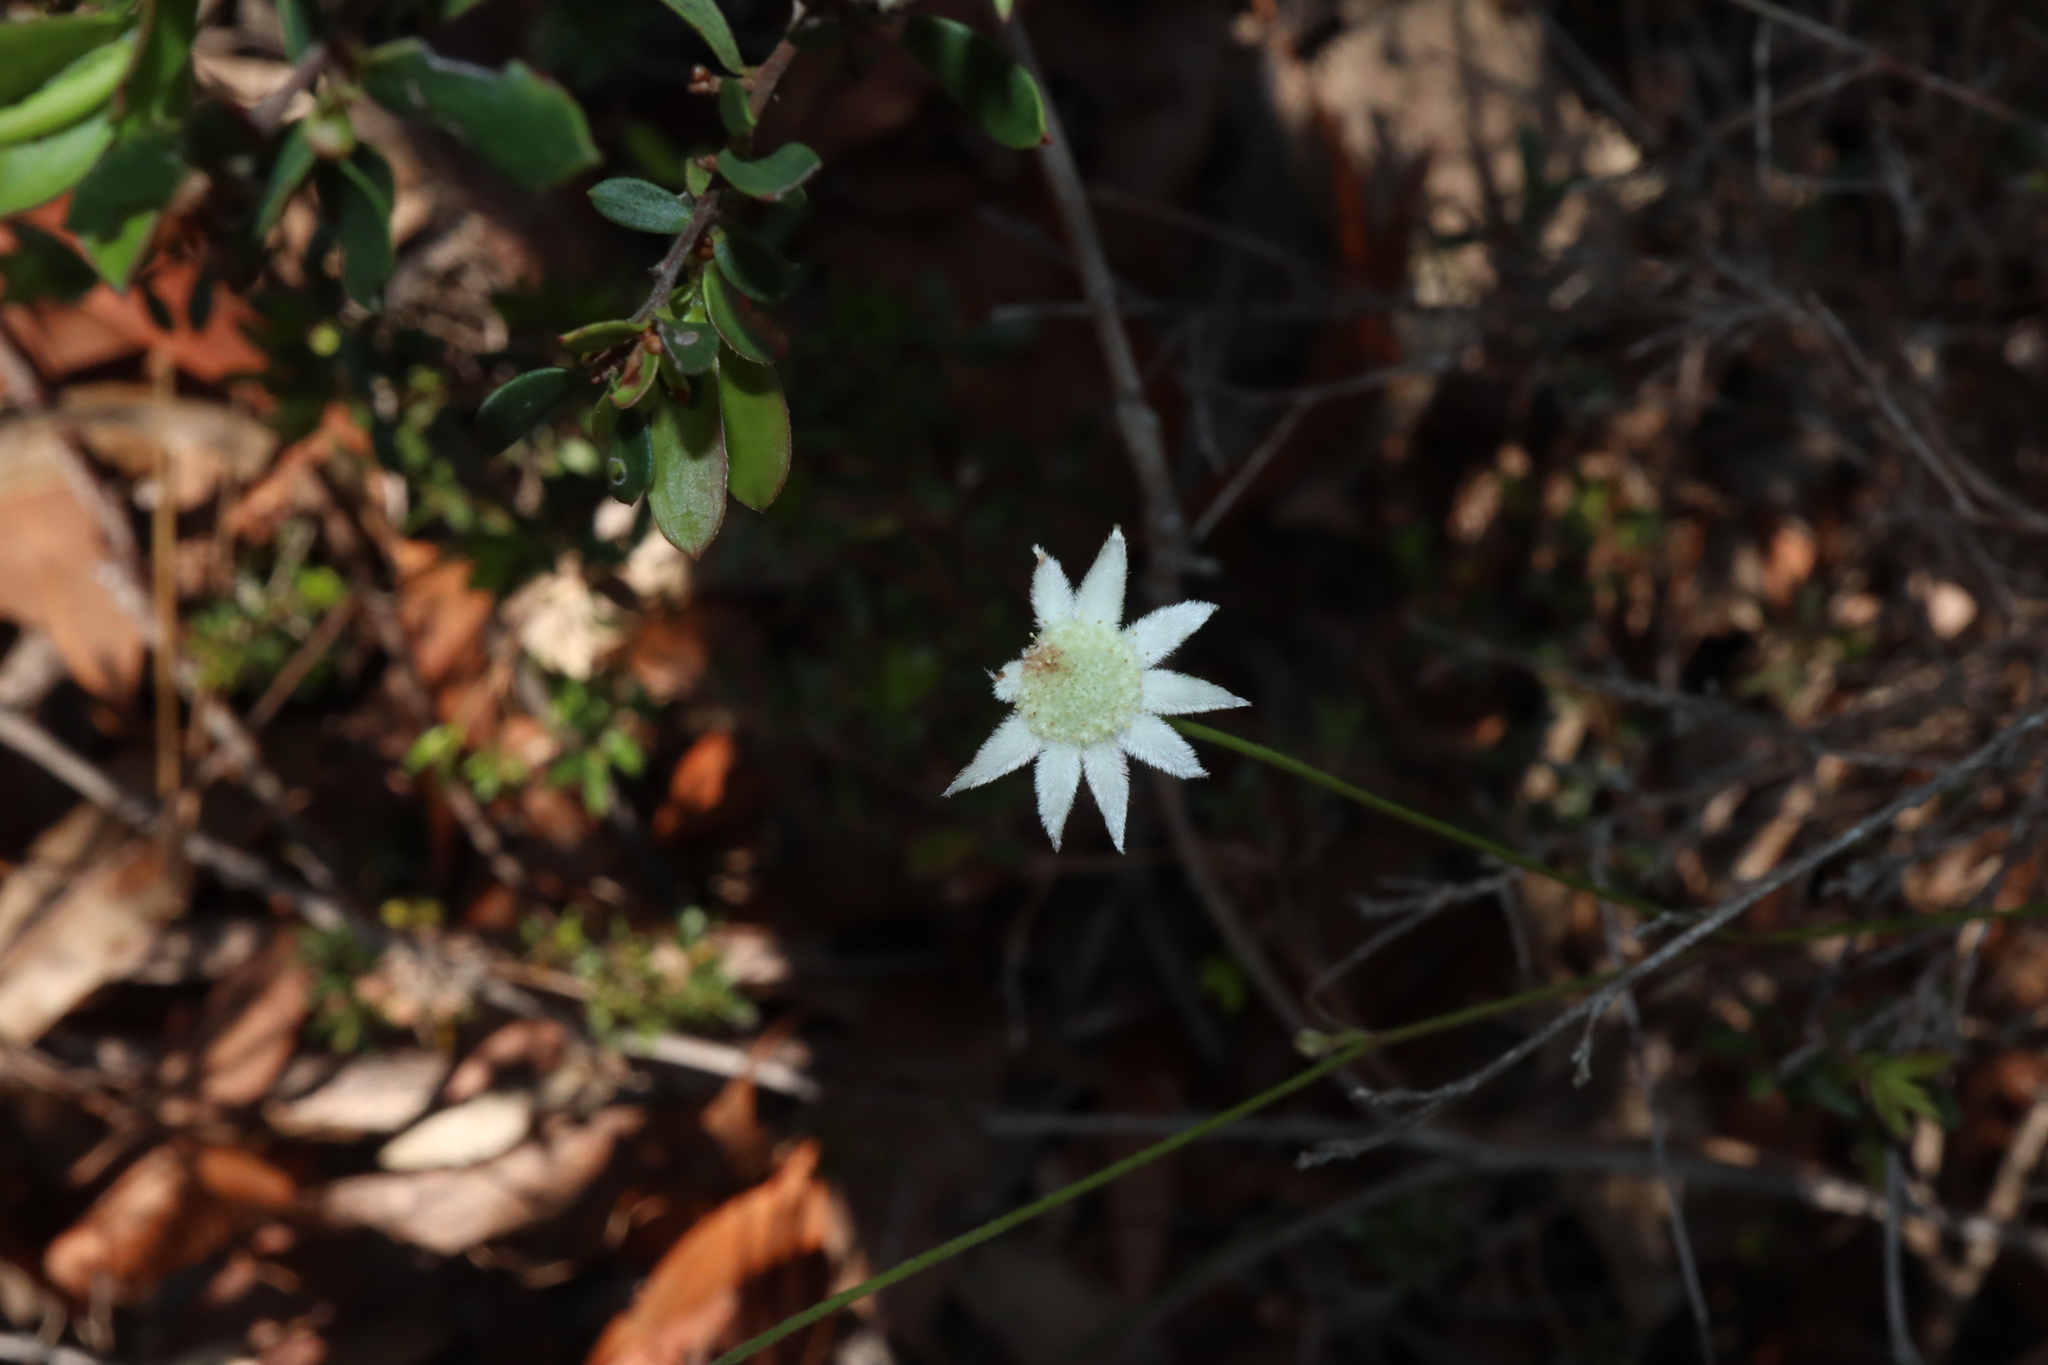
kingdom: Plantae
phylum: Tracheophyta
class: Magnoliopsida
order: Apiales
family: Apiaceae
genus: Actinotus
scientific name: Actinotus minor
